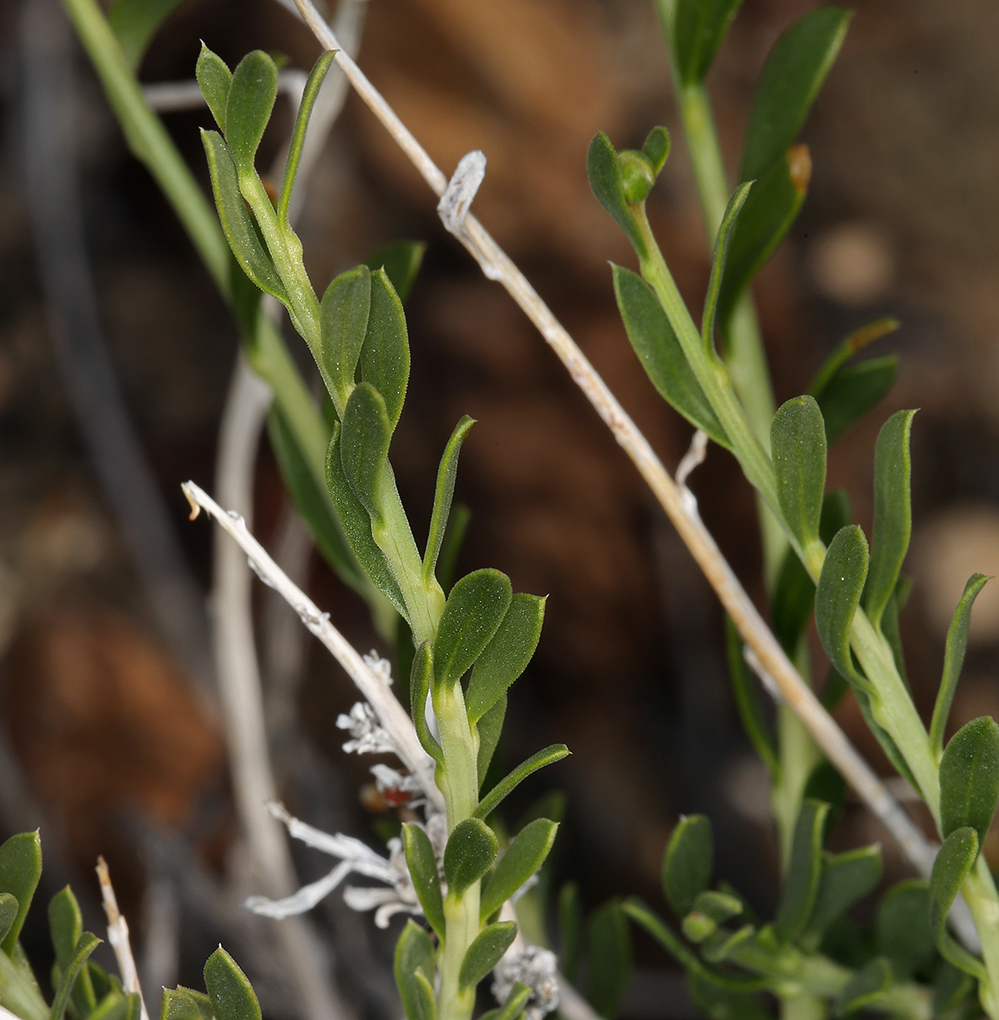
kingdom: Plantae
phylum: Tracheophyta
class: Magnoliopsida
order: Asterales
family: Asteraceae
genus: Acamptopappus
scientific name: Acamptopappus shockleyi
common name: Shockley's goldenhead
